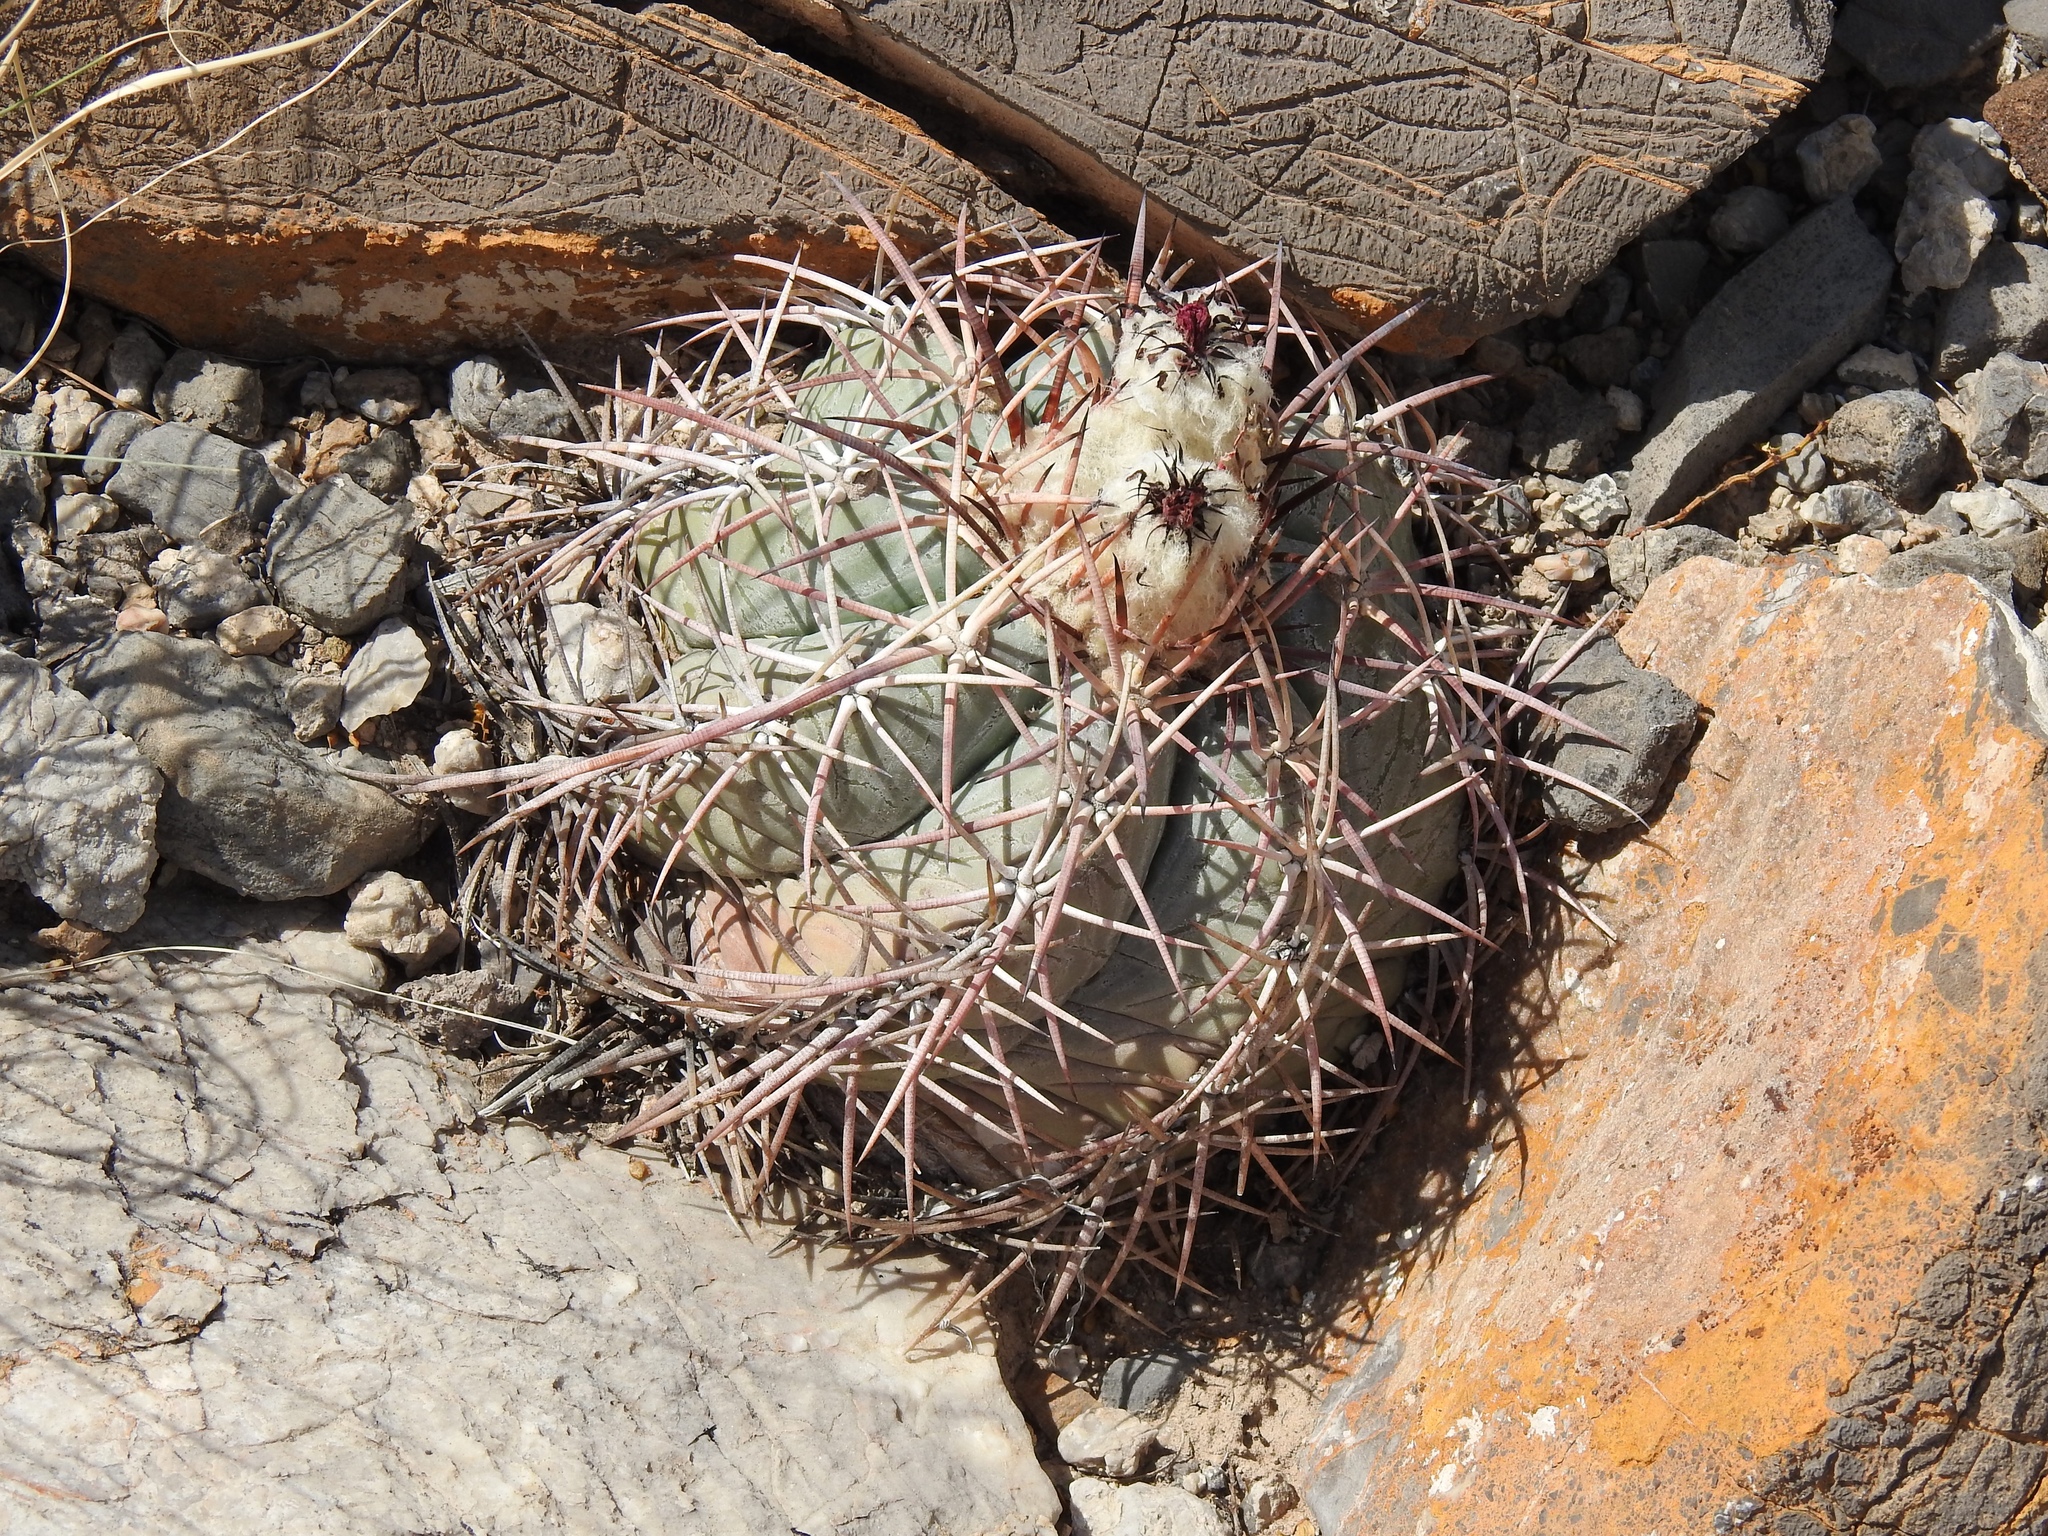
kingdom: Plantae
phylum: Tracheophyta
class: Magnoliopsida
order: Caryophyllales
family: Cactaceae
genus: Echinocactus
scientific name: Echinocactus horizonthalonius
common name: Devilshead
